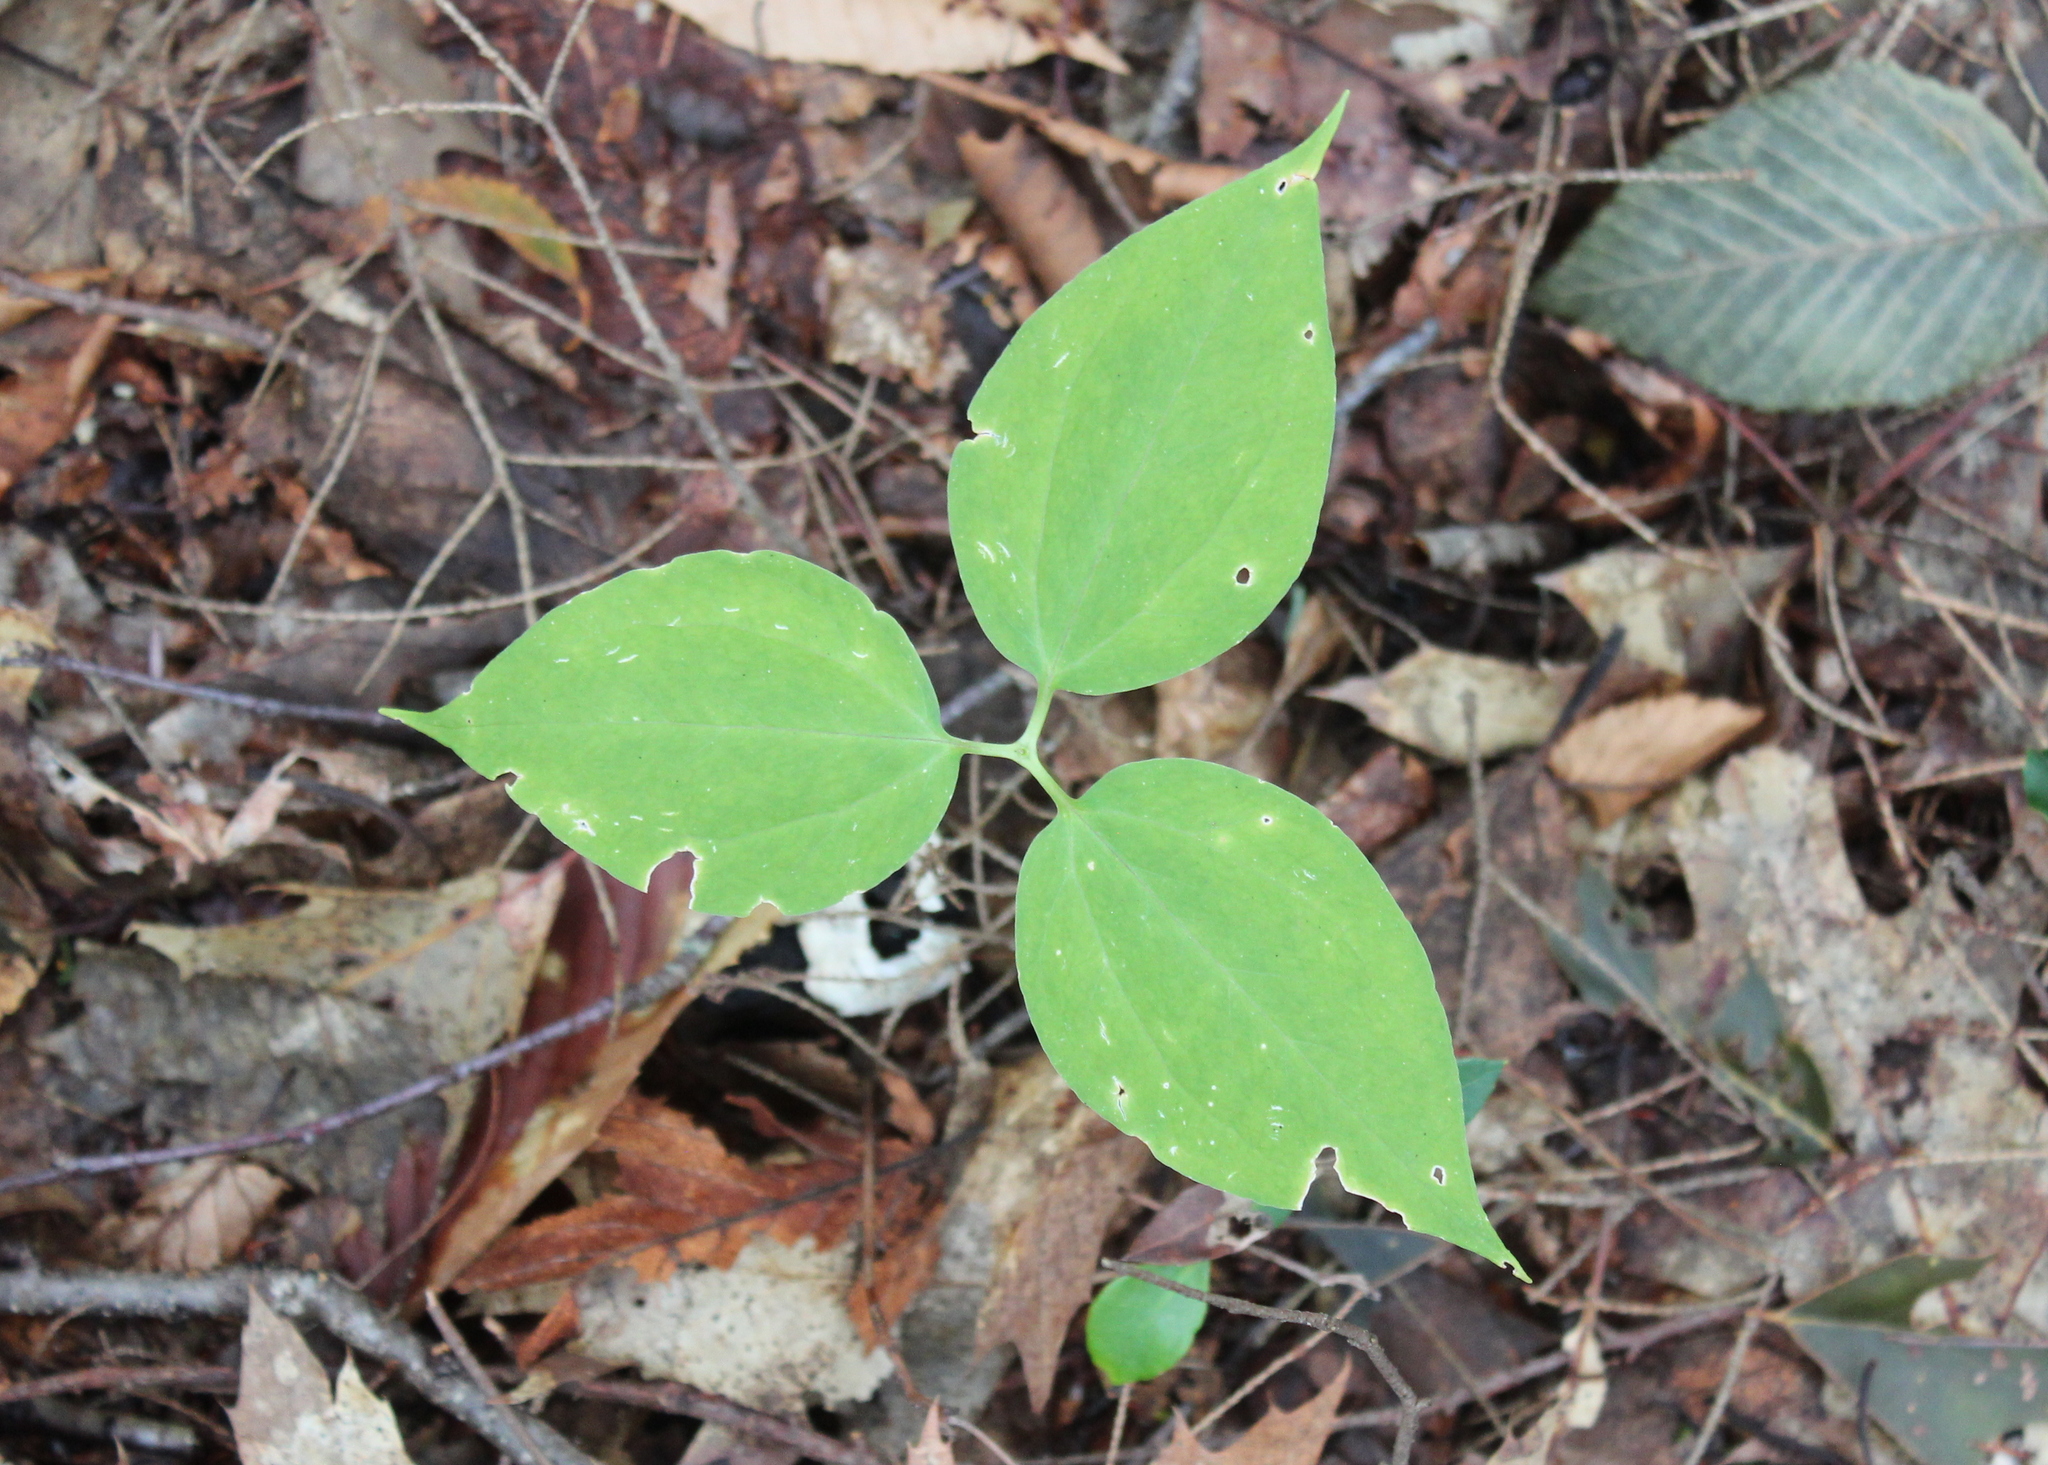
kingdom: Plantae
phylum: Tracheophyta
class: Liliopsida
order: Liliales
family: Melanthiaceae
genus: Trillium
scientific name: Trillium undulatum
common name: Paint trillium
